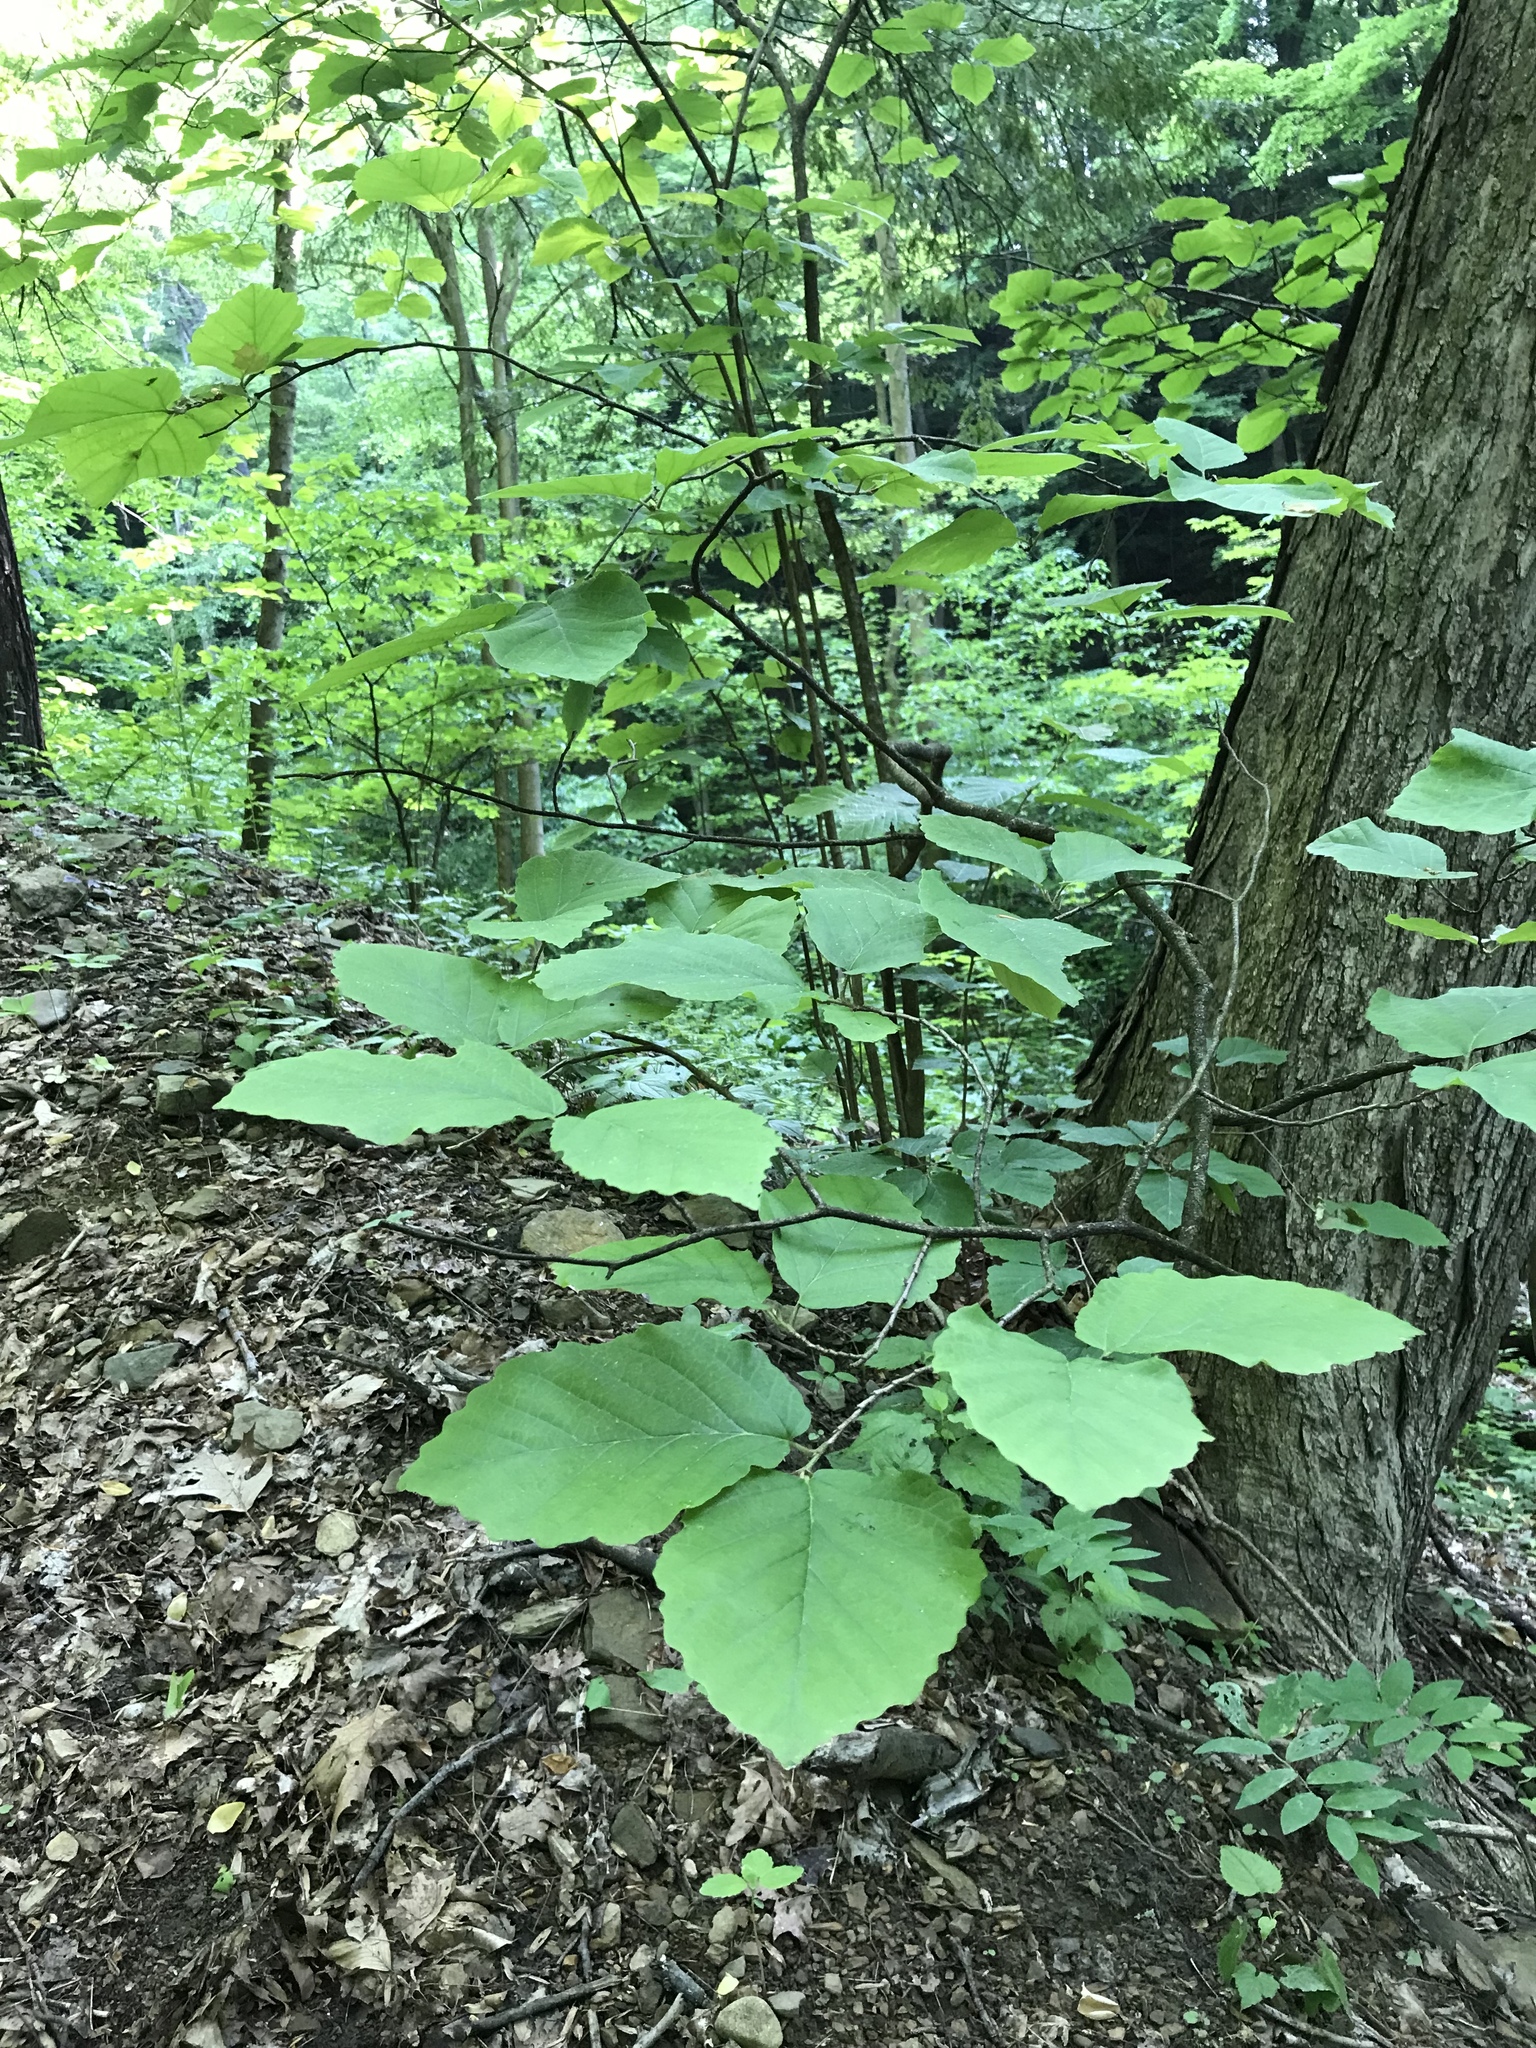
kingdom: Plantae
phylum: Tracheophyta
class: Magnoliopsida
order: Saxifragales
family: Hamamelidaceae
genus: Hamamelis
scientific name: Hamamelis virginiana
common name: Witch-hazel
